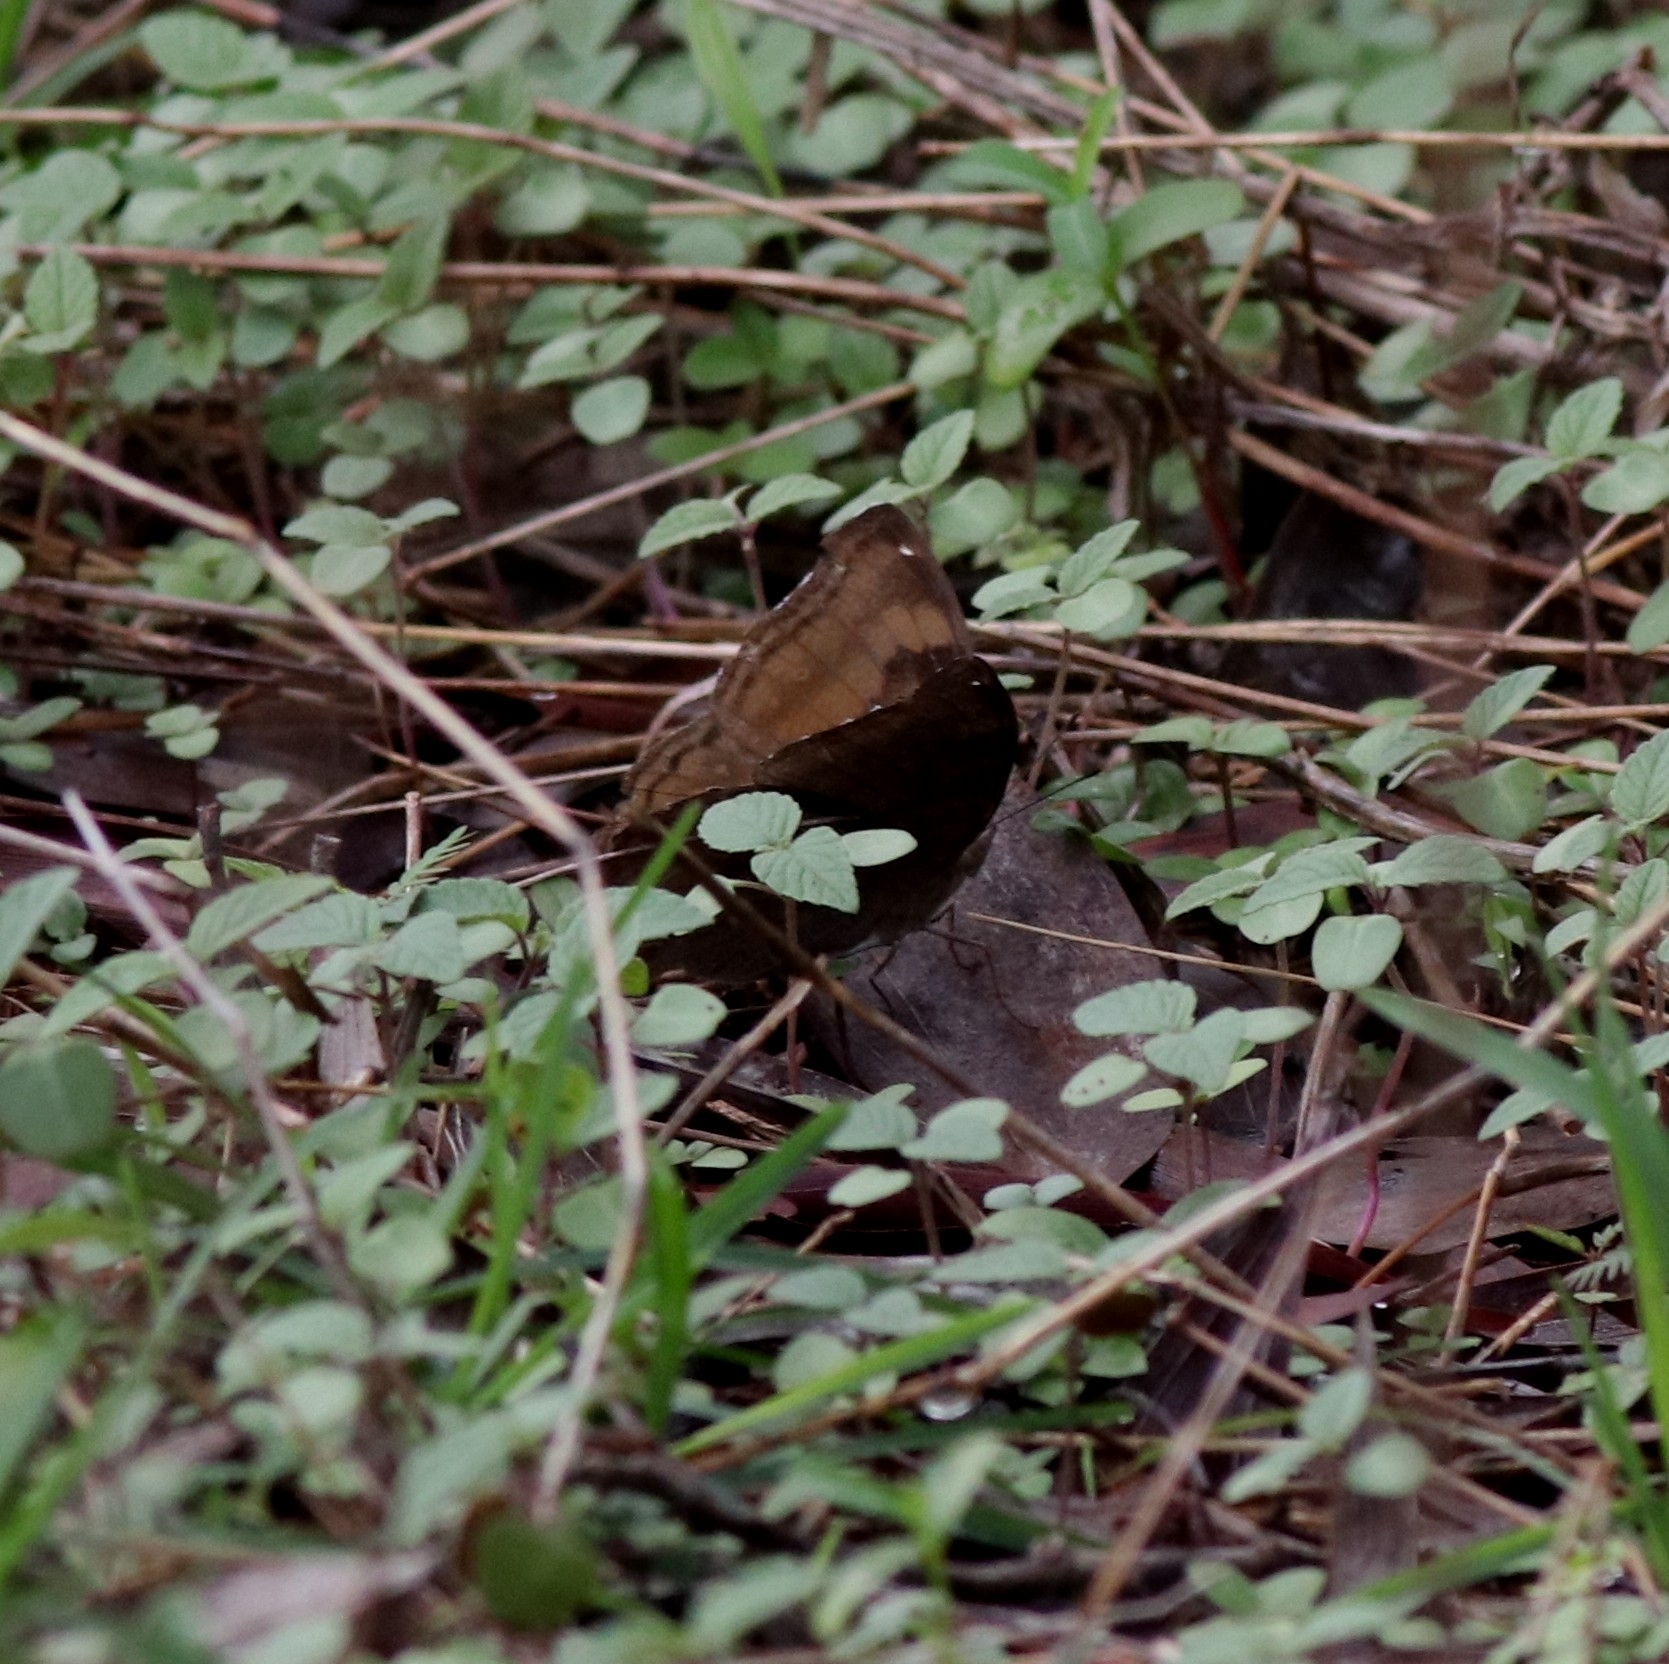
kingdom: Animalia
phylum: Arthropoda
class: Insecta
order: Lepidoptera
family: Nymphalidae
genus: Junonia
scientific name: Junonia iphita
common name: Chocolate pansy
